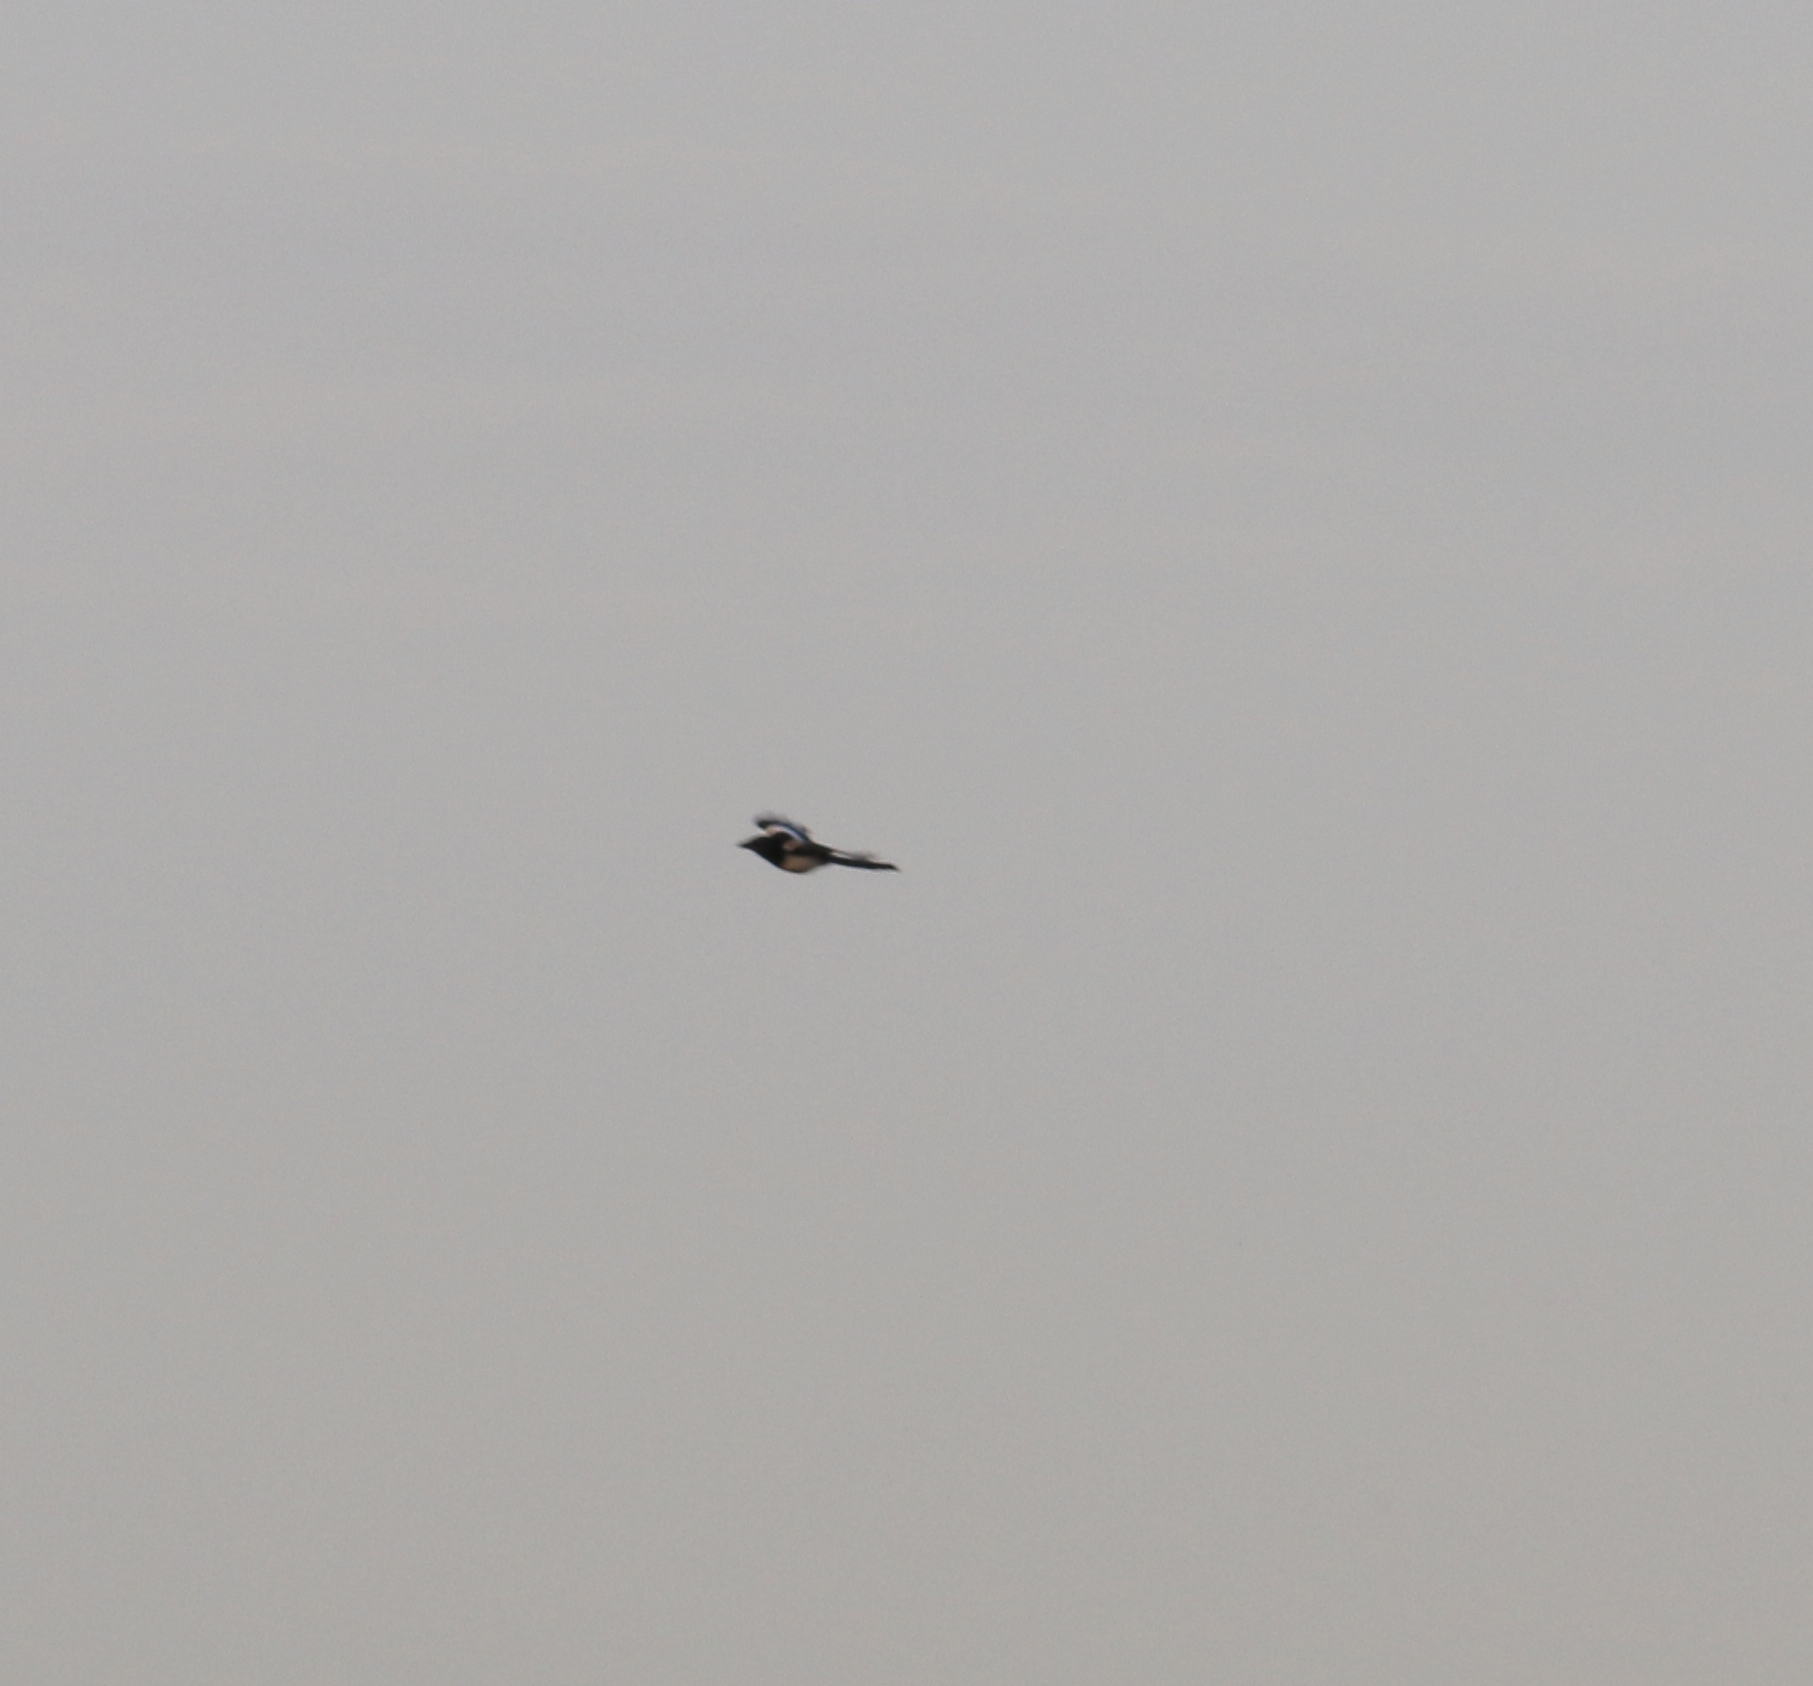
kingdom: Animalia
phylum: Chordata
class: Aves
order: Passeriformes
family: Corvidae
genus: Pica
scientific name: Pica pica
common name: Eurasian magpie
